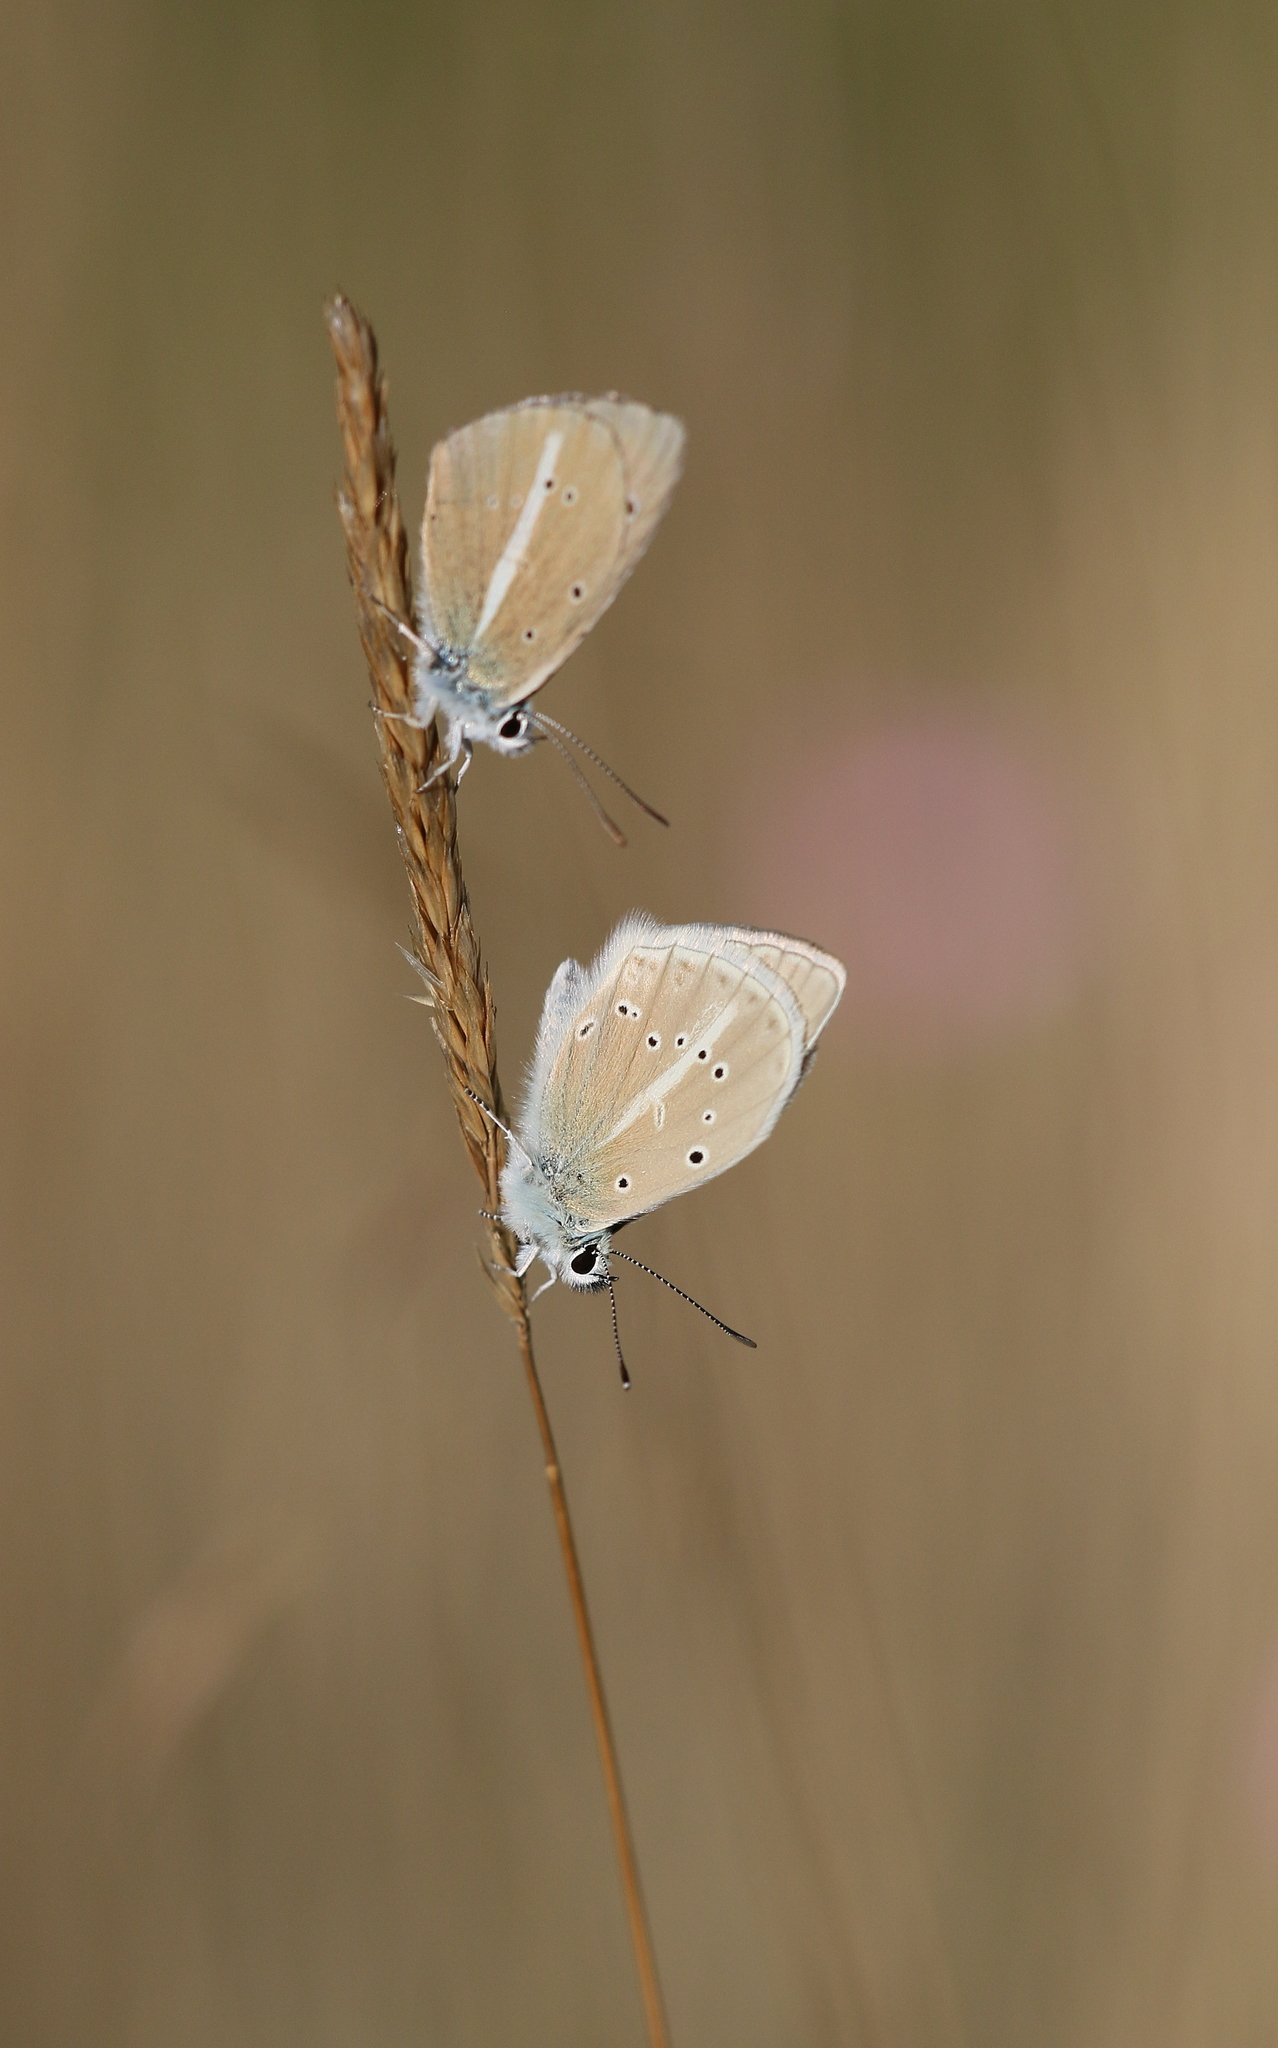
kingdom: Animalia
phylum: Arthropoda
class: Insecta
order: Lepidoptera
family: Lycaenidae
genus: Agrodiaetus
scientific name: Agrodiaetus dolus
